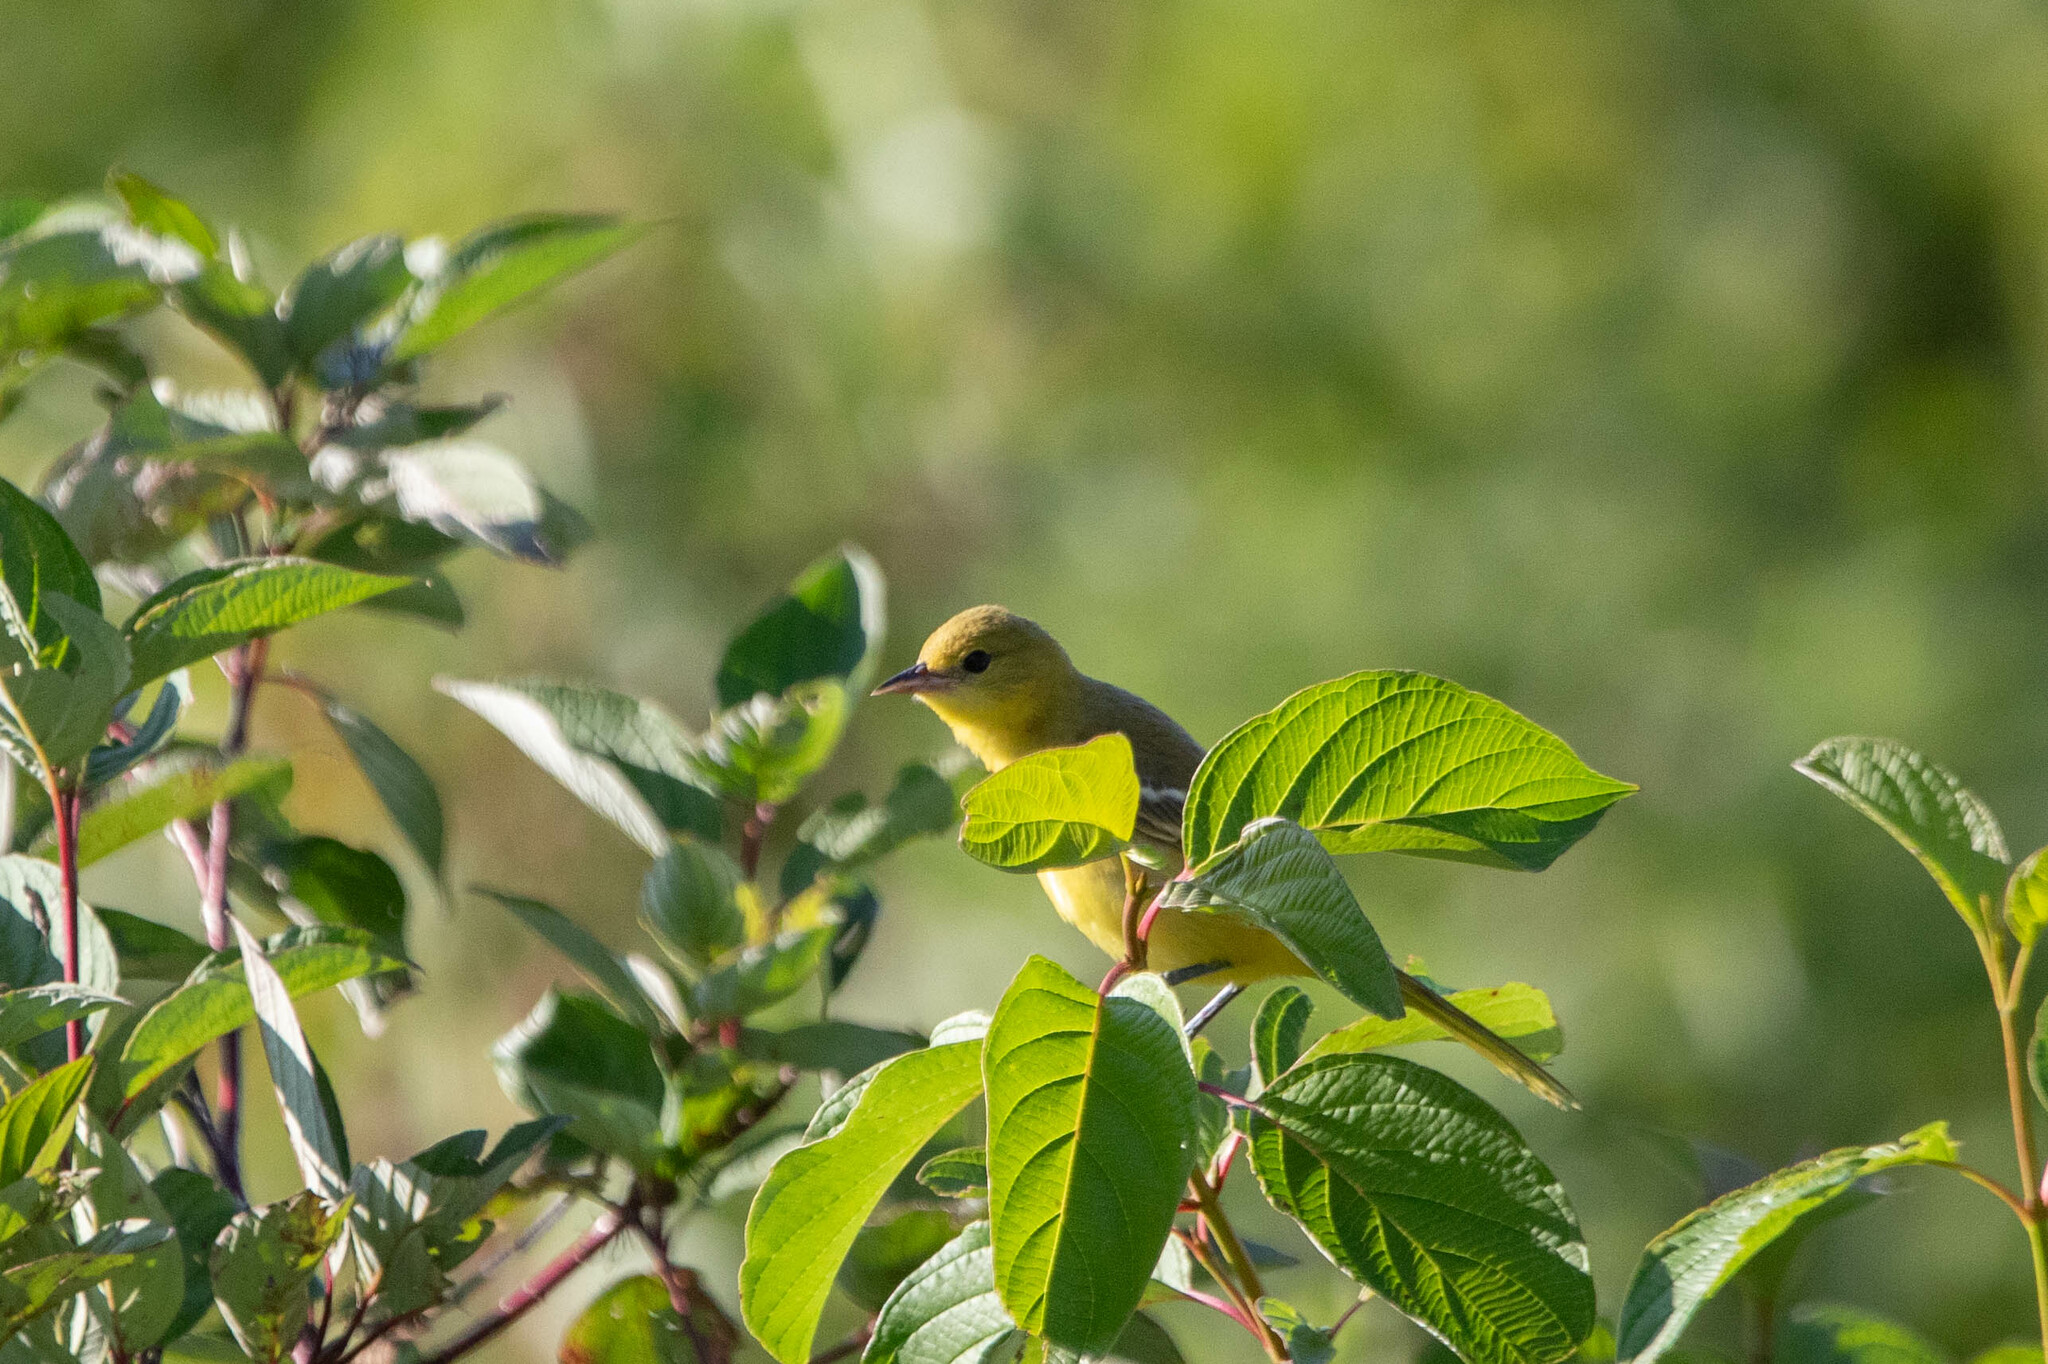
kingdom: Animalia
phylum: Chordata
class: Aves
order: Passeriformes
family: Icteridae
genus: Icterus
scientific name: Icterus spurius
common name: Orchard oriole
